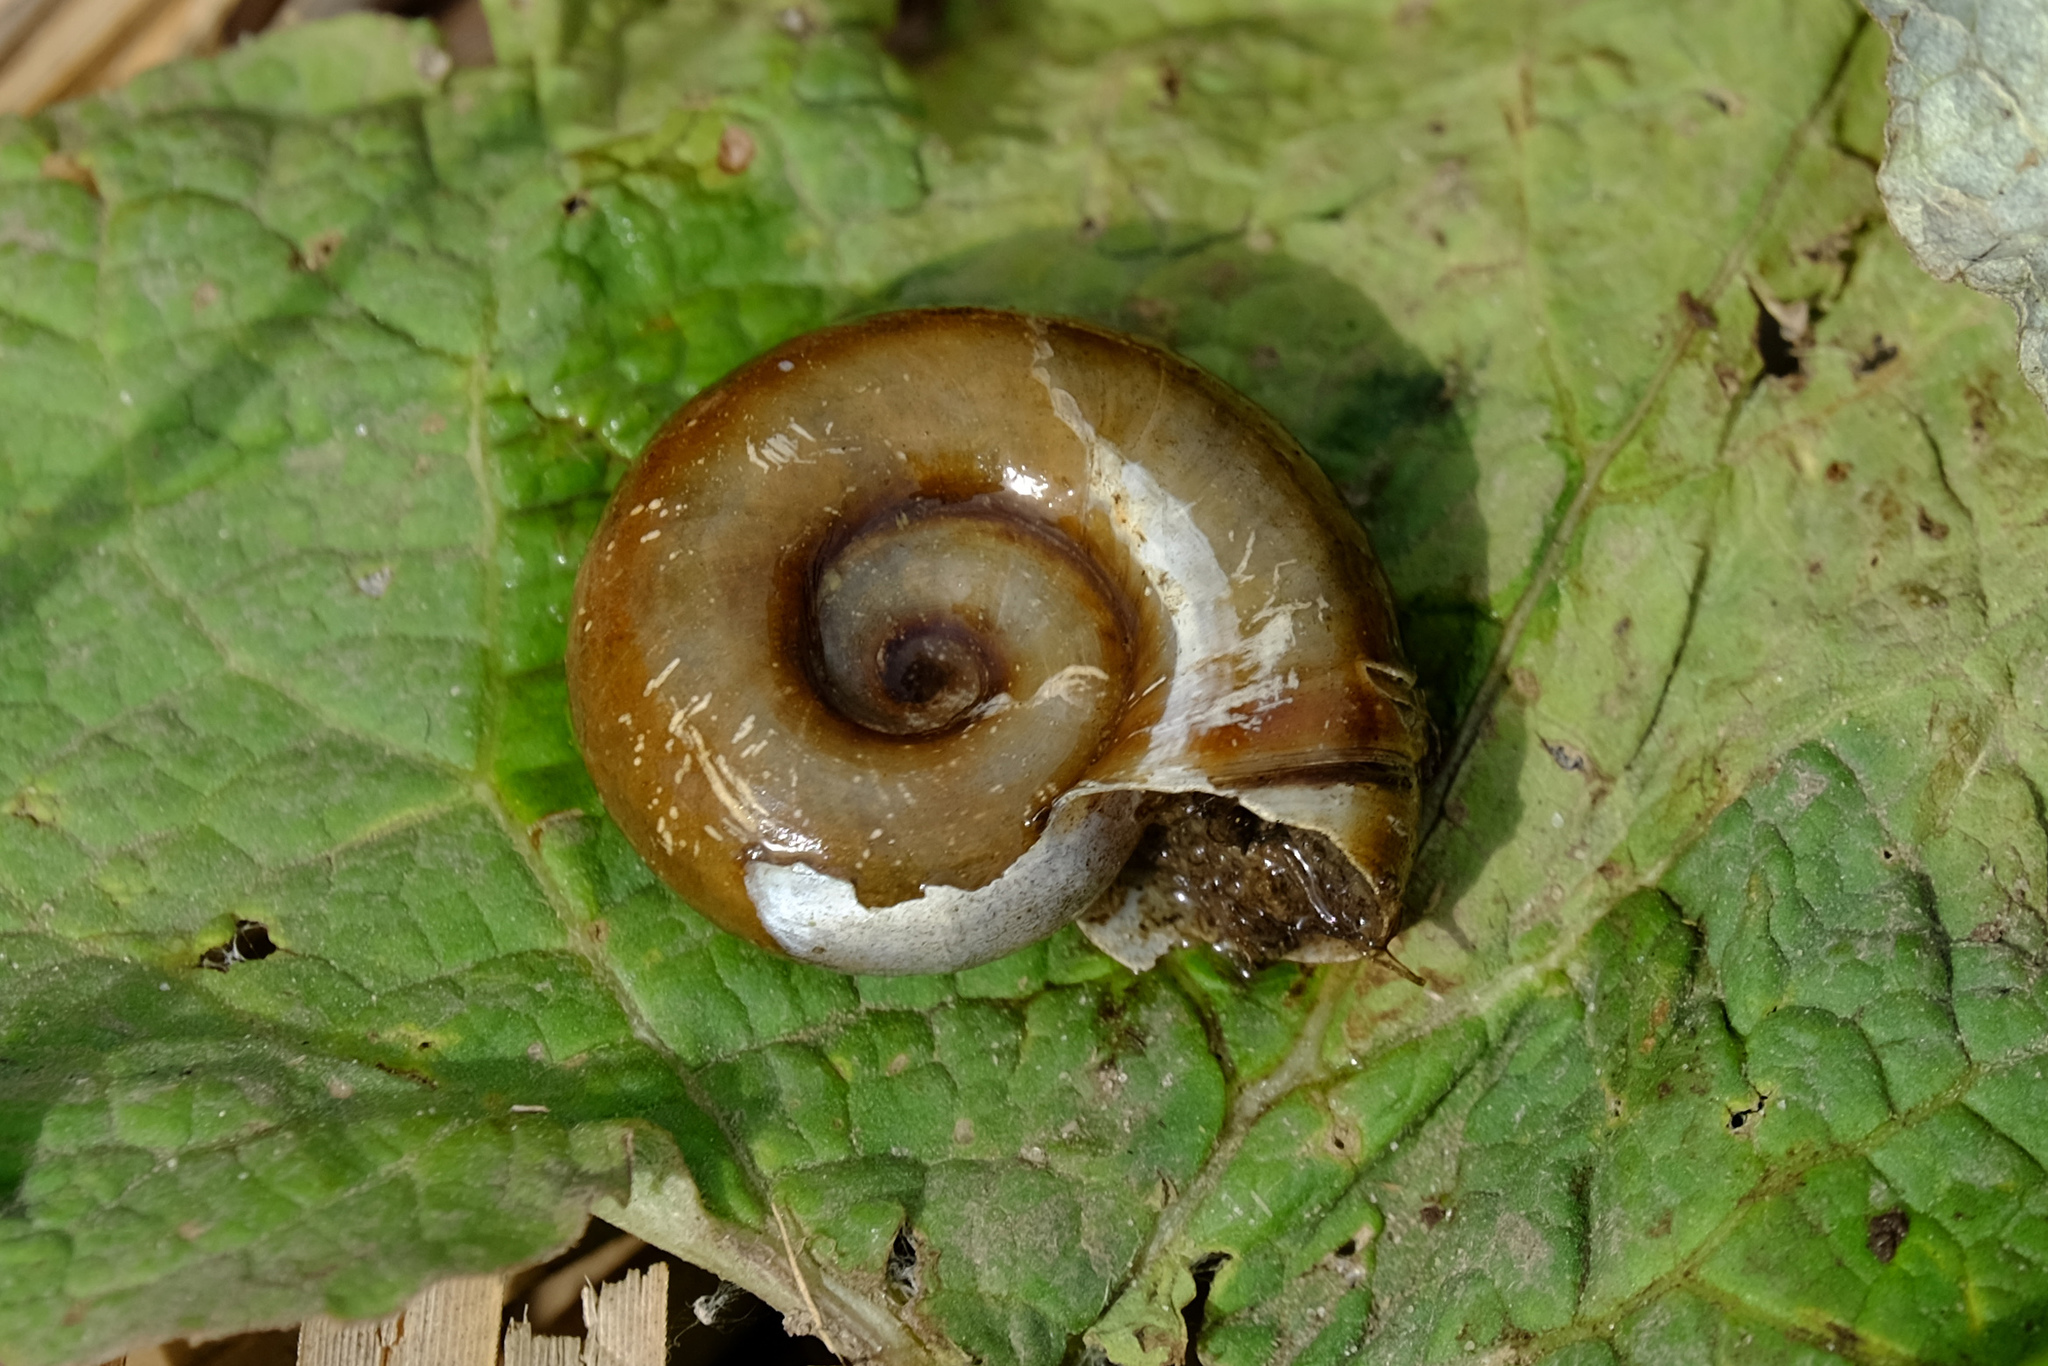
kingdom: Animalia
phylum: Mollusca
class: Gastropoda
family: Planorbidae
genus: Planorbarius
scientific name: Planorbarius corneus
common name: Great ramshorn
